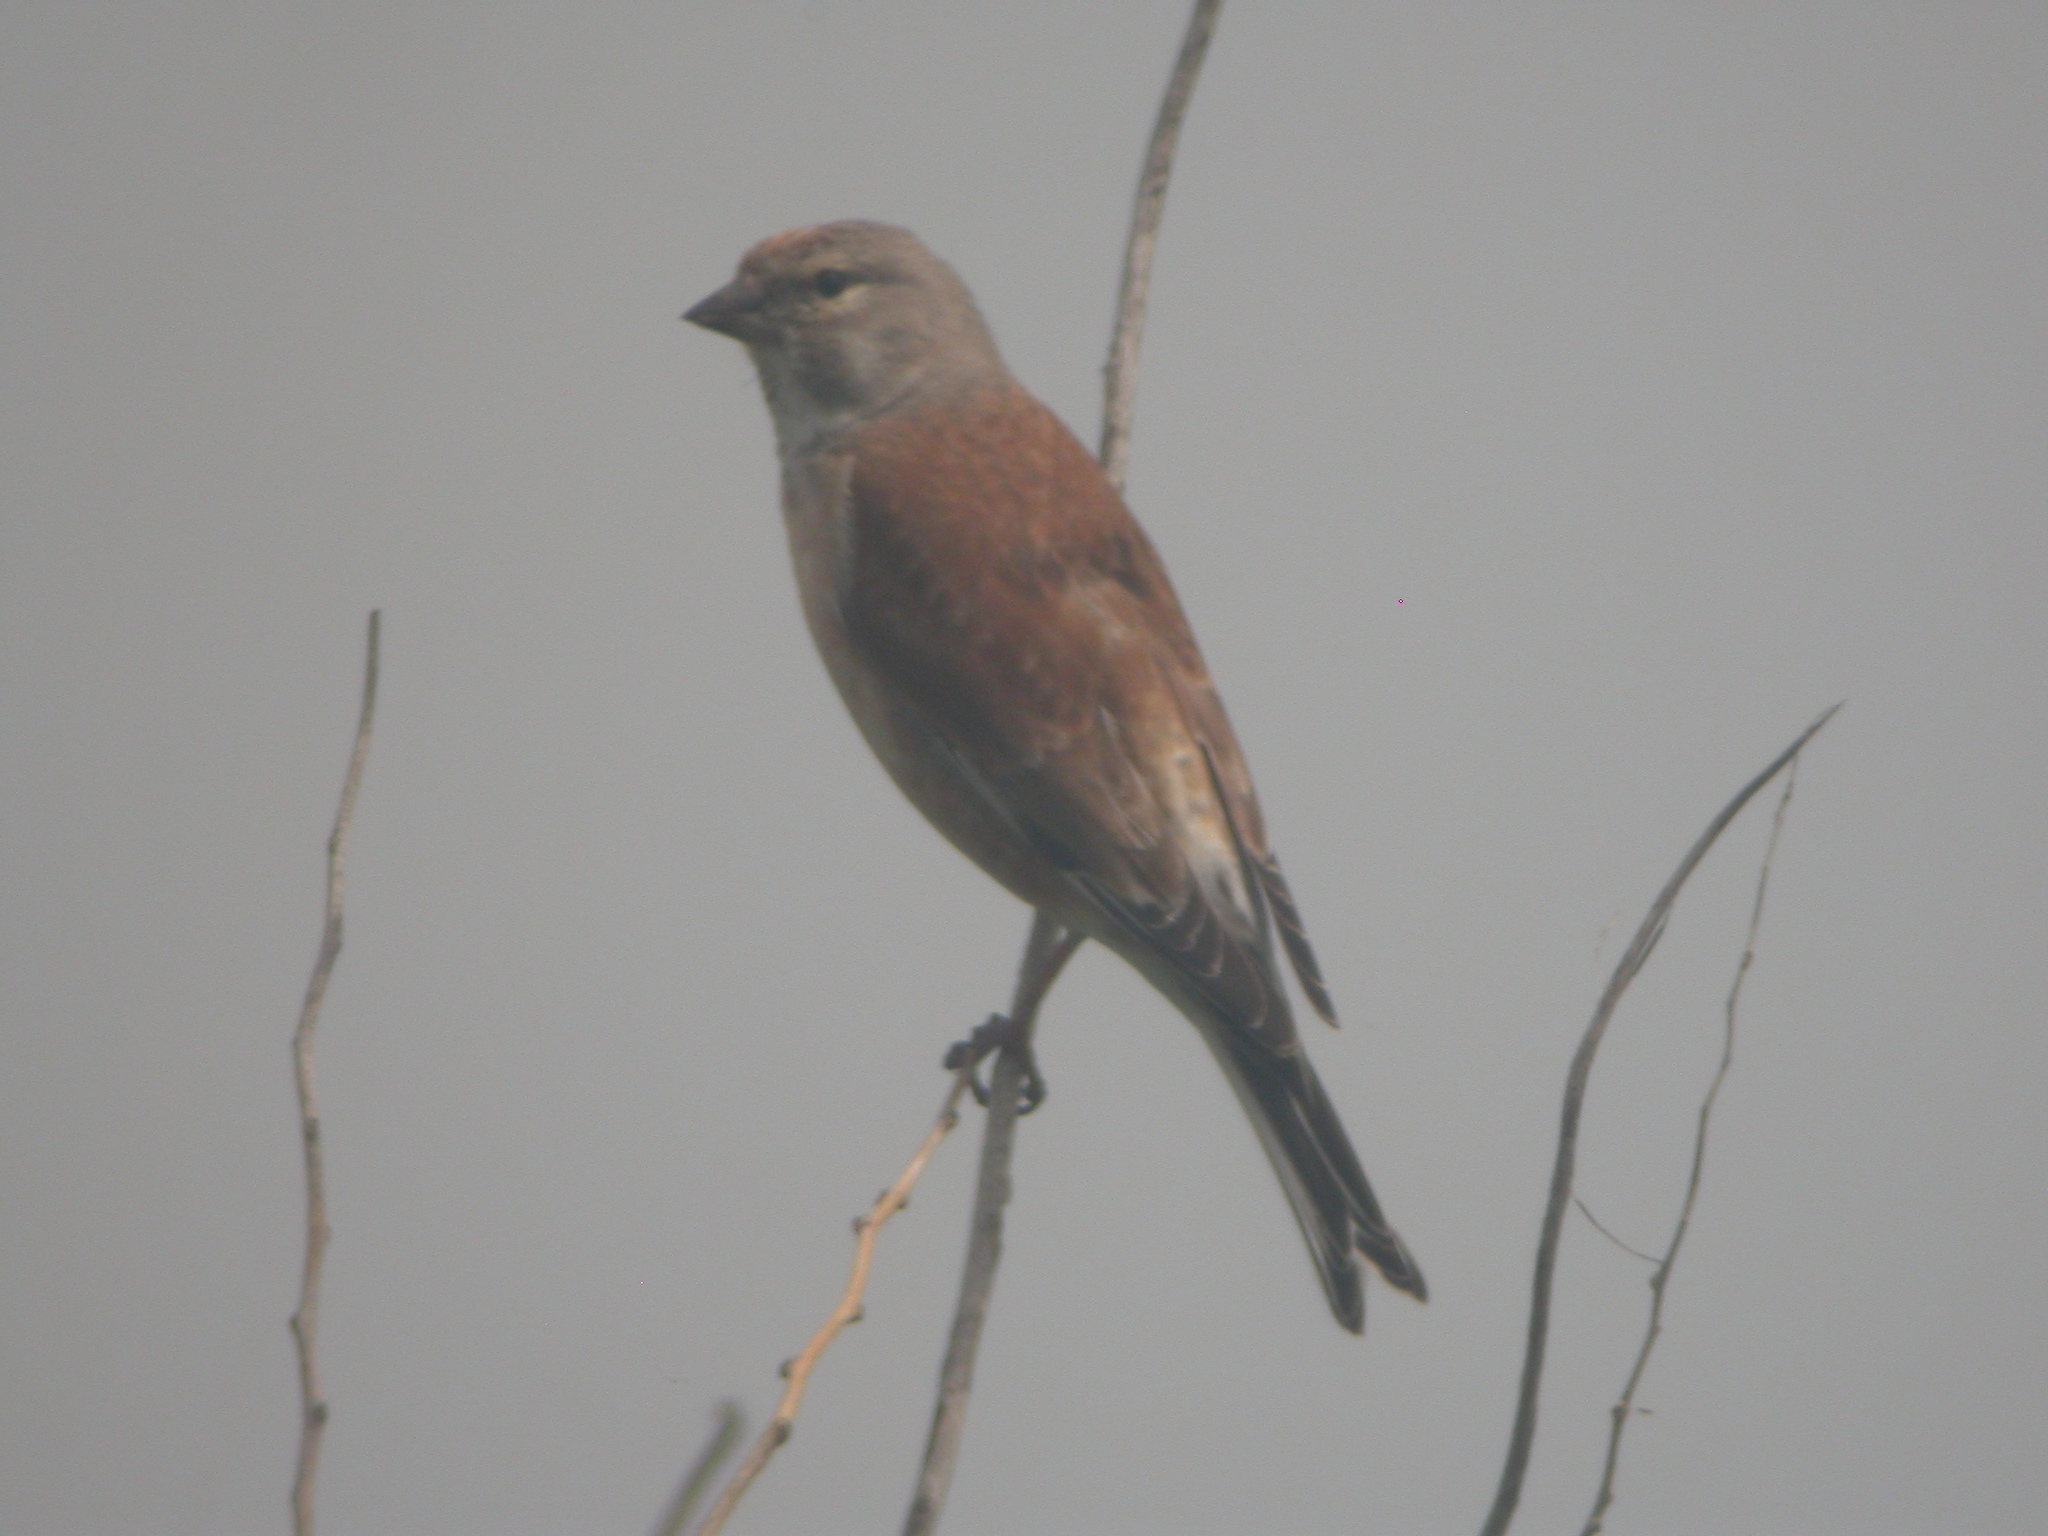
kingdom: Animalia
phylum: Chordata
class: Aves
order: Passeriformes
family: Fringillidae
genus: Linaria
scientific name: Linaria cannabina
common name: Common linnet
